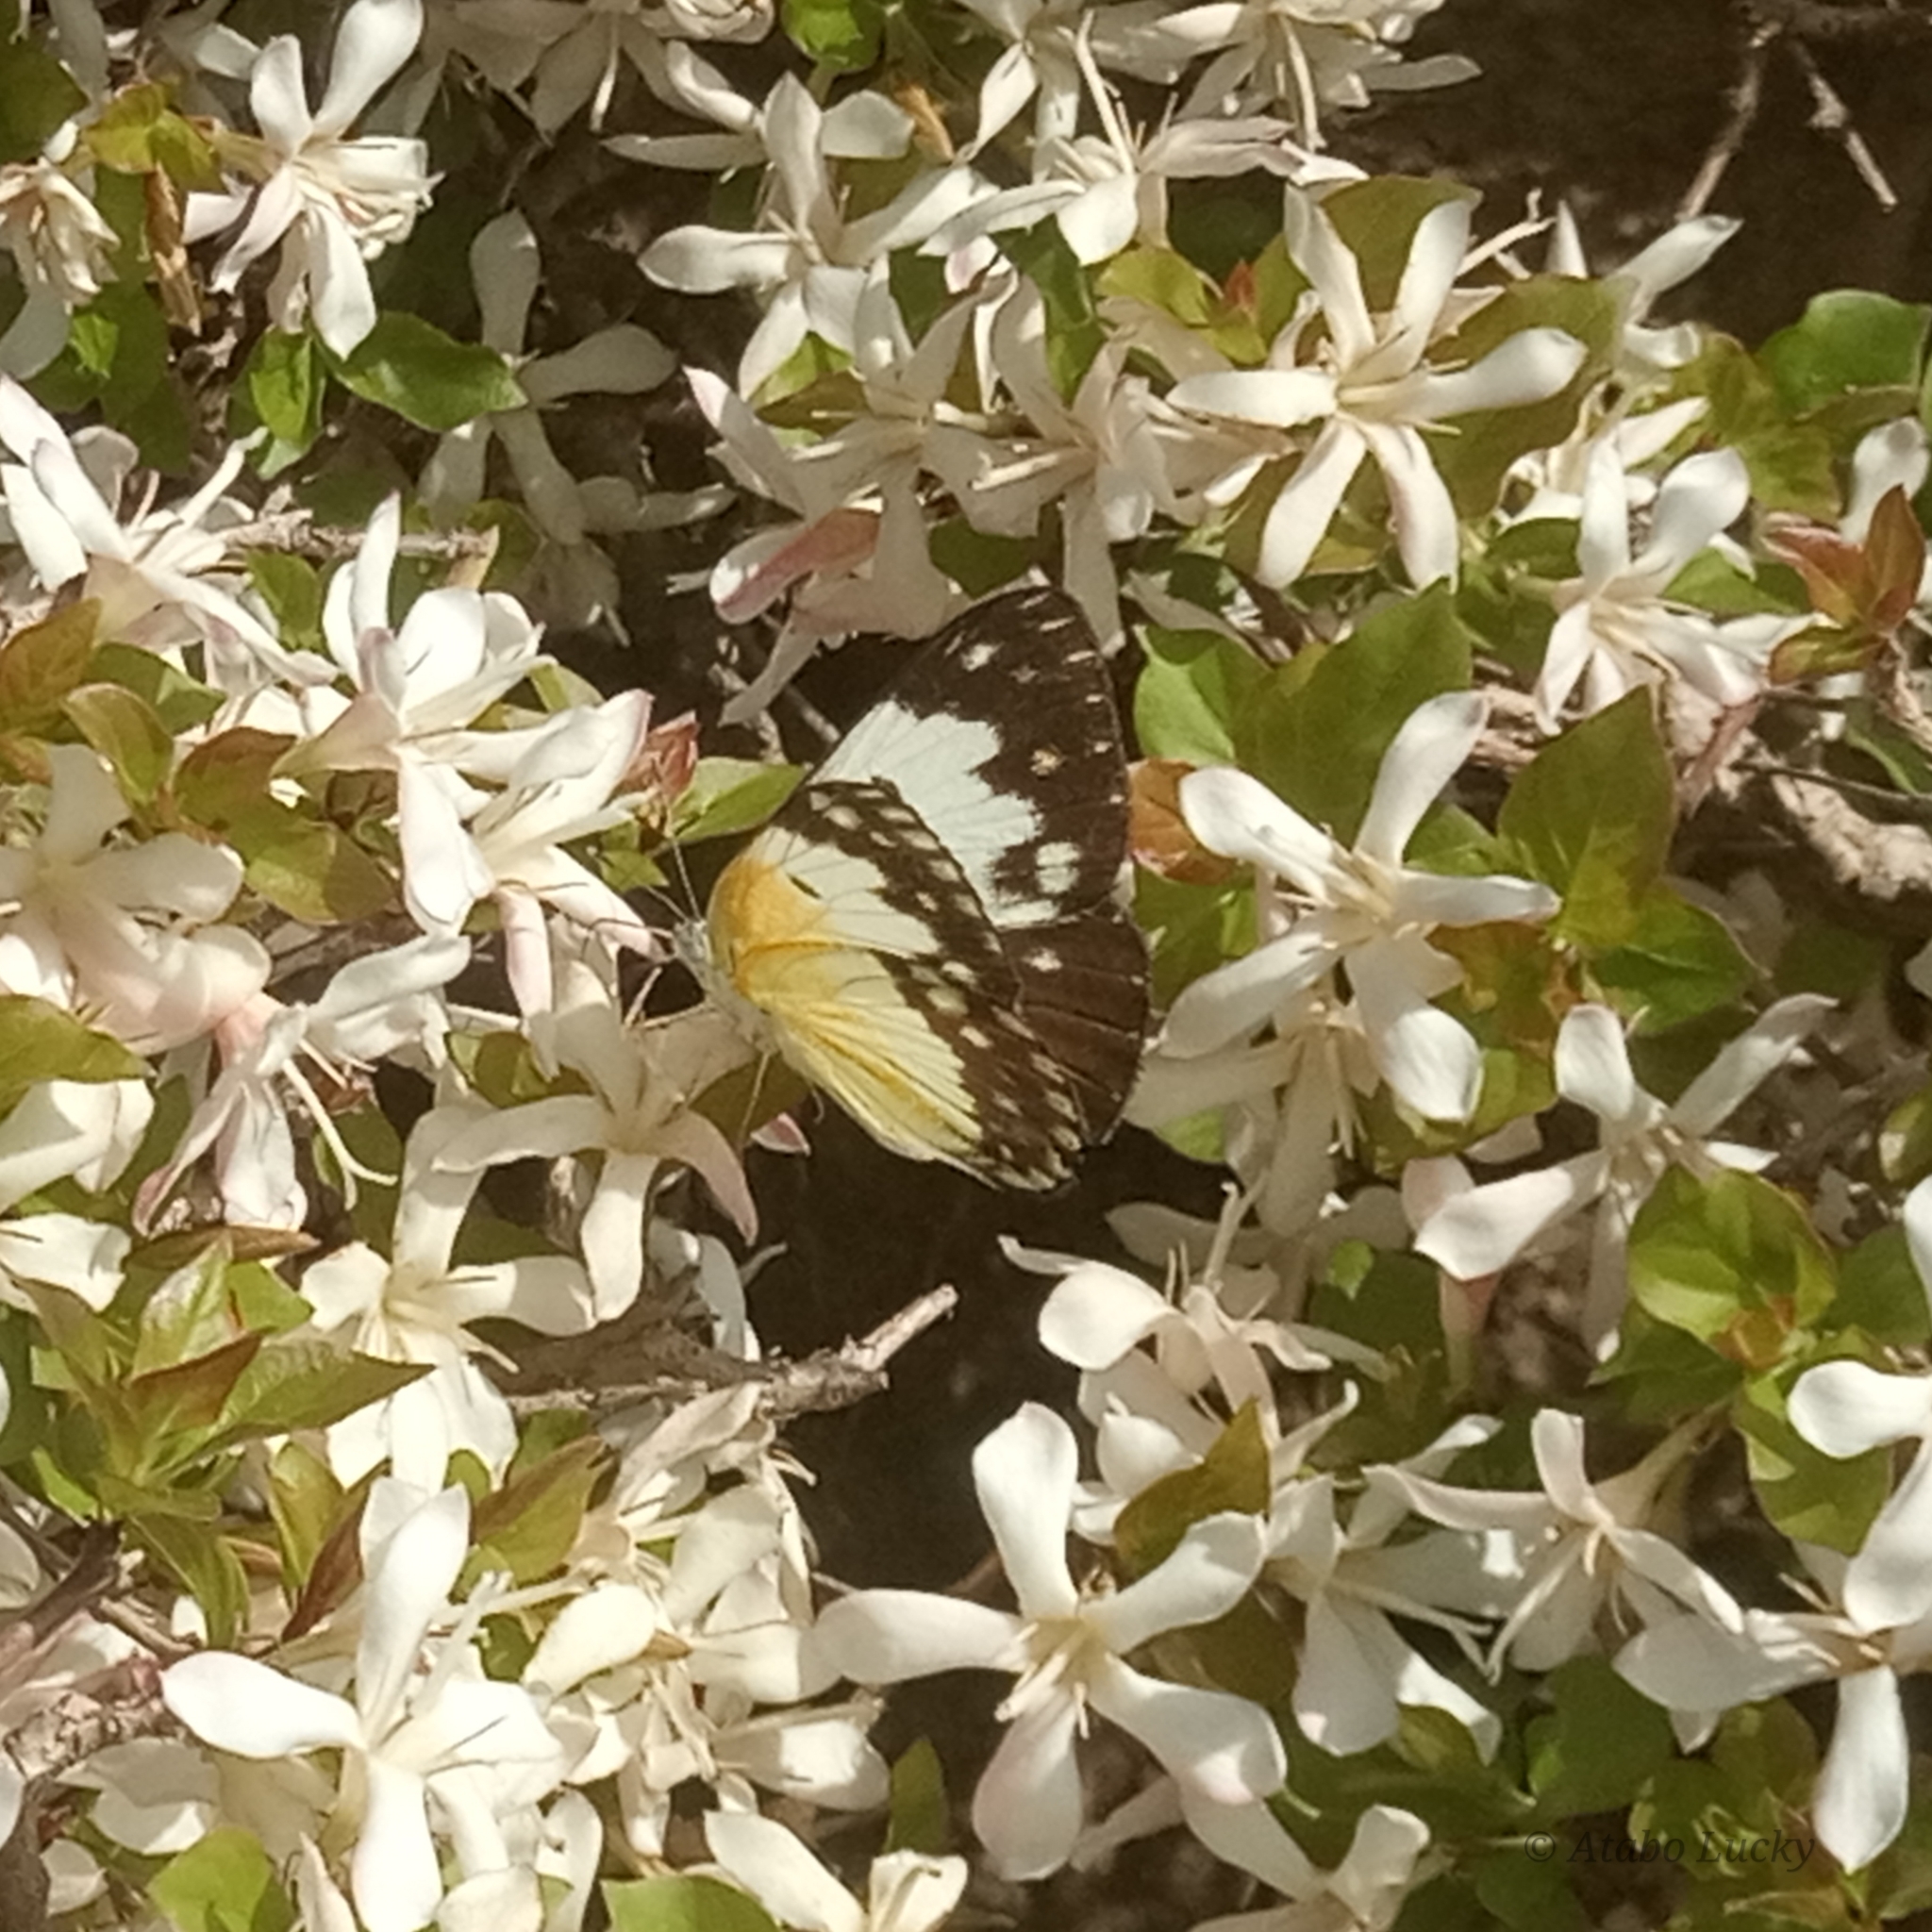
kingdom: Animalia
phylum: Arthropoda
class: Insecta
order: Lepidoptera
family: Pieridae
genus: Colotis
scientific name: Colotis vesta
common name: Veined golden arab
